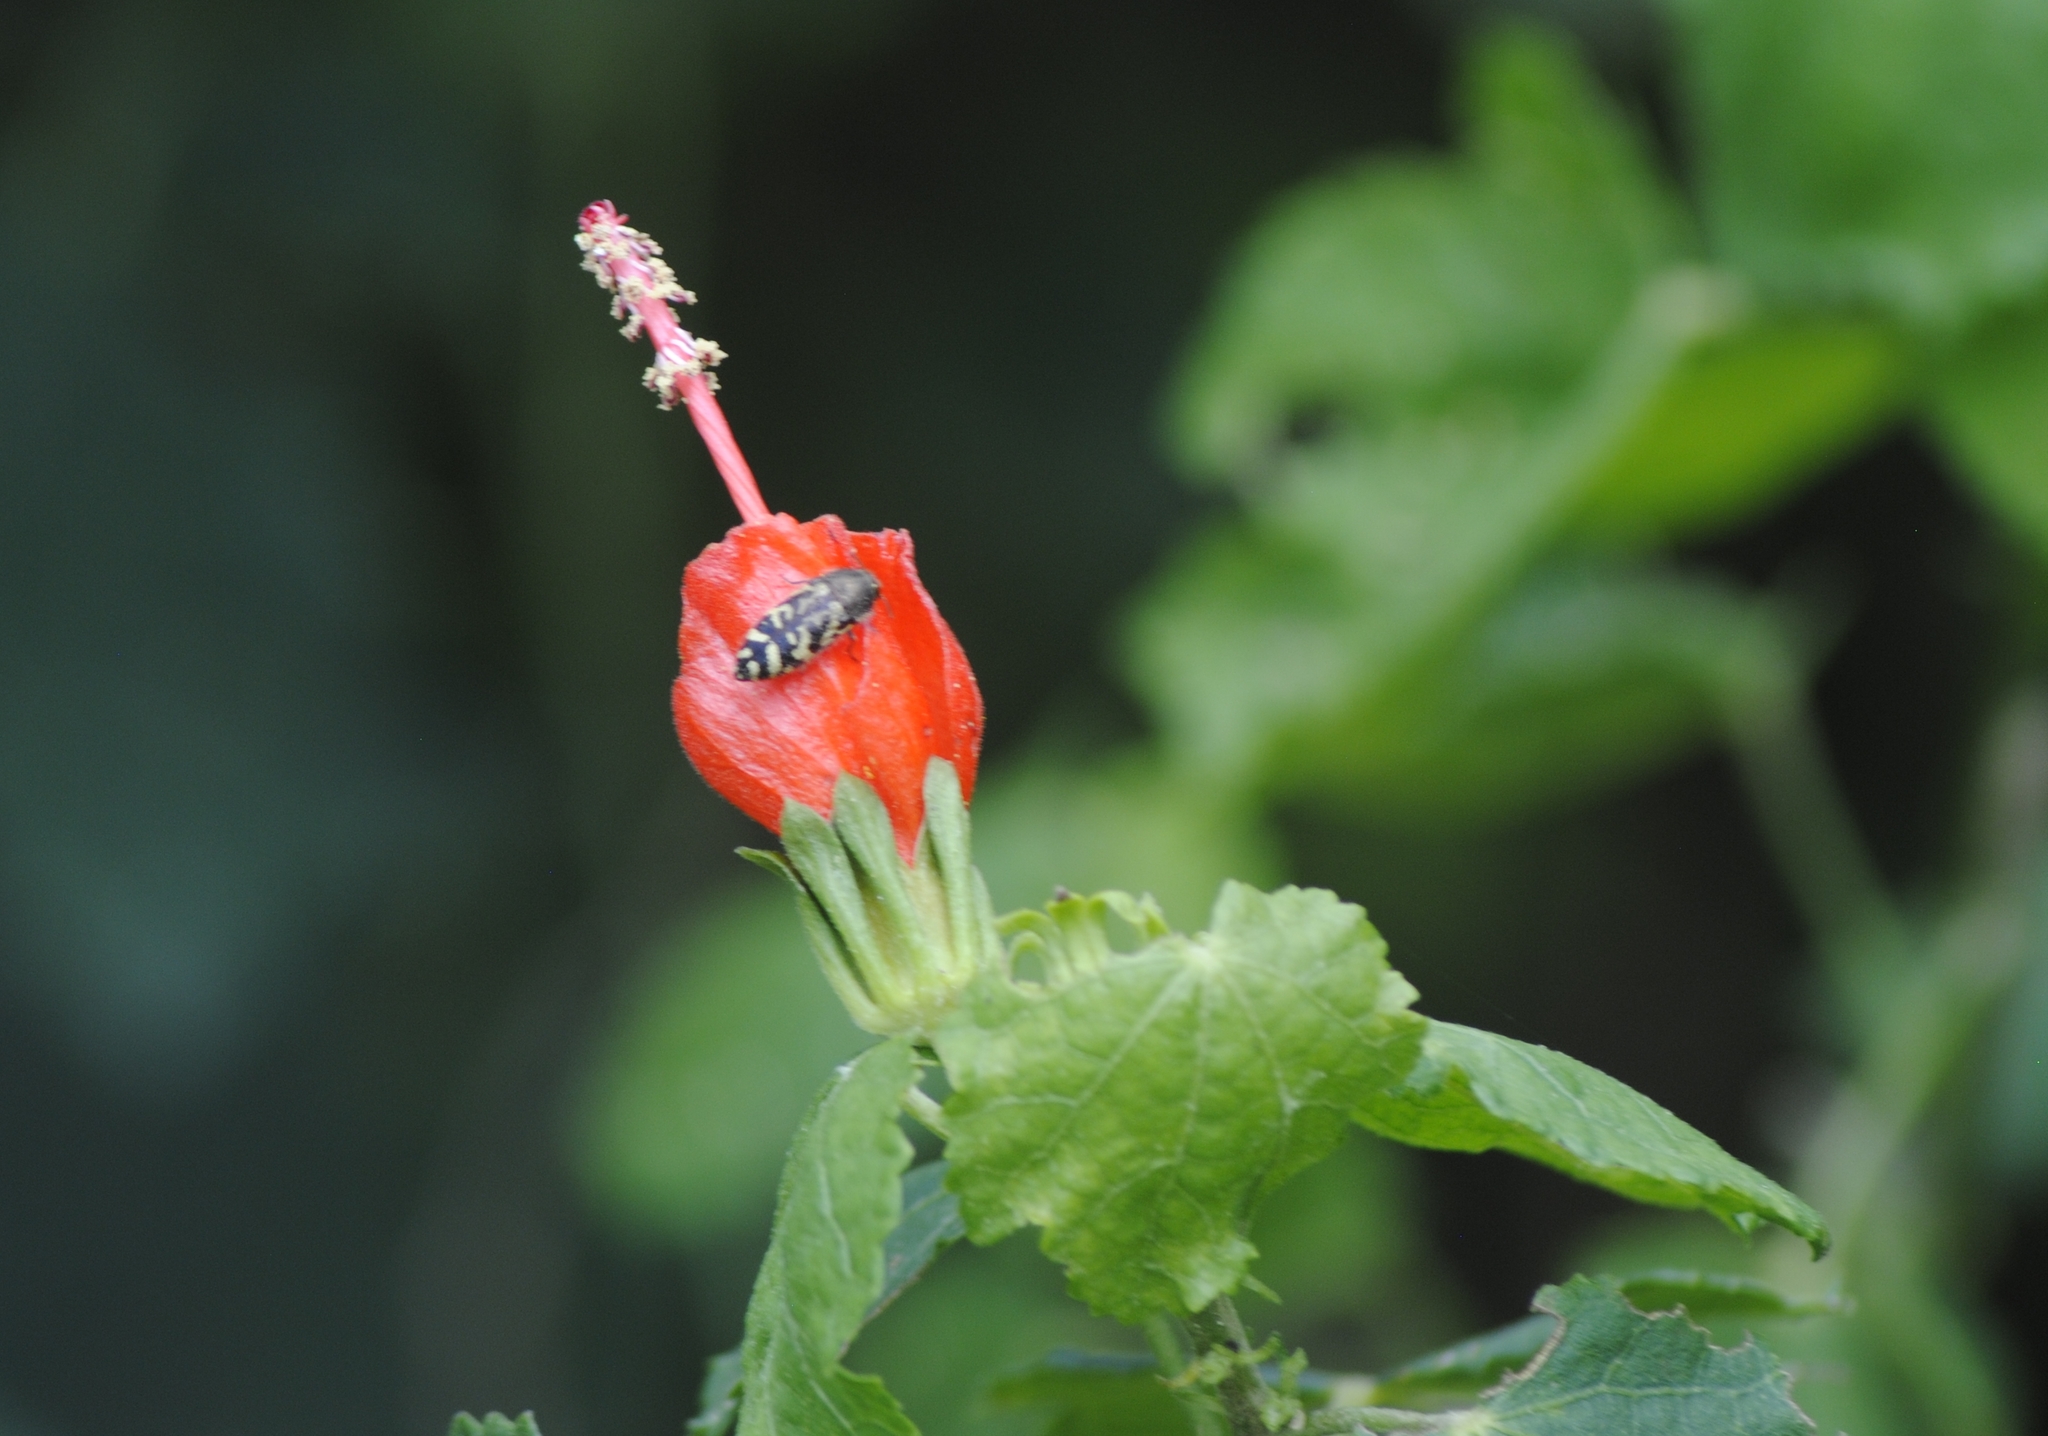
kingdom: Plantae
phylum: Tracheophyta
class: Magnoliopsida
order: Malvales
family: Malvaceae
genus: Malvaviscus
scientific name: Malvaviscus arboreus
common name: Wax mallow
